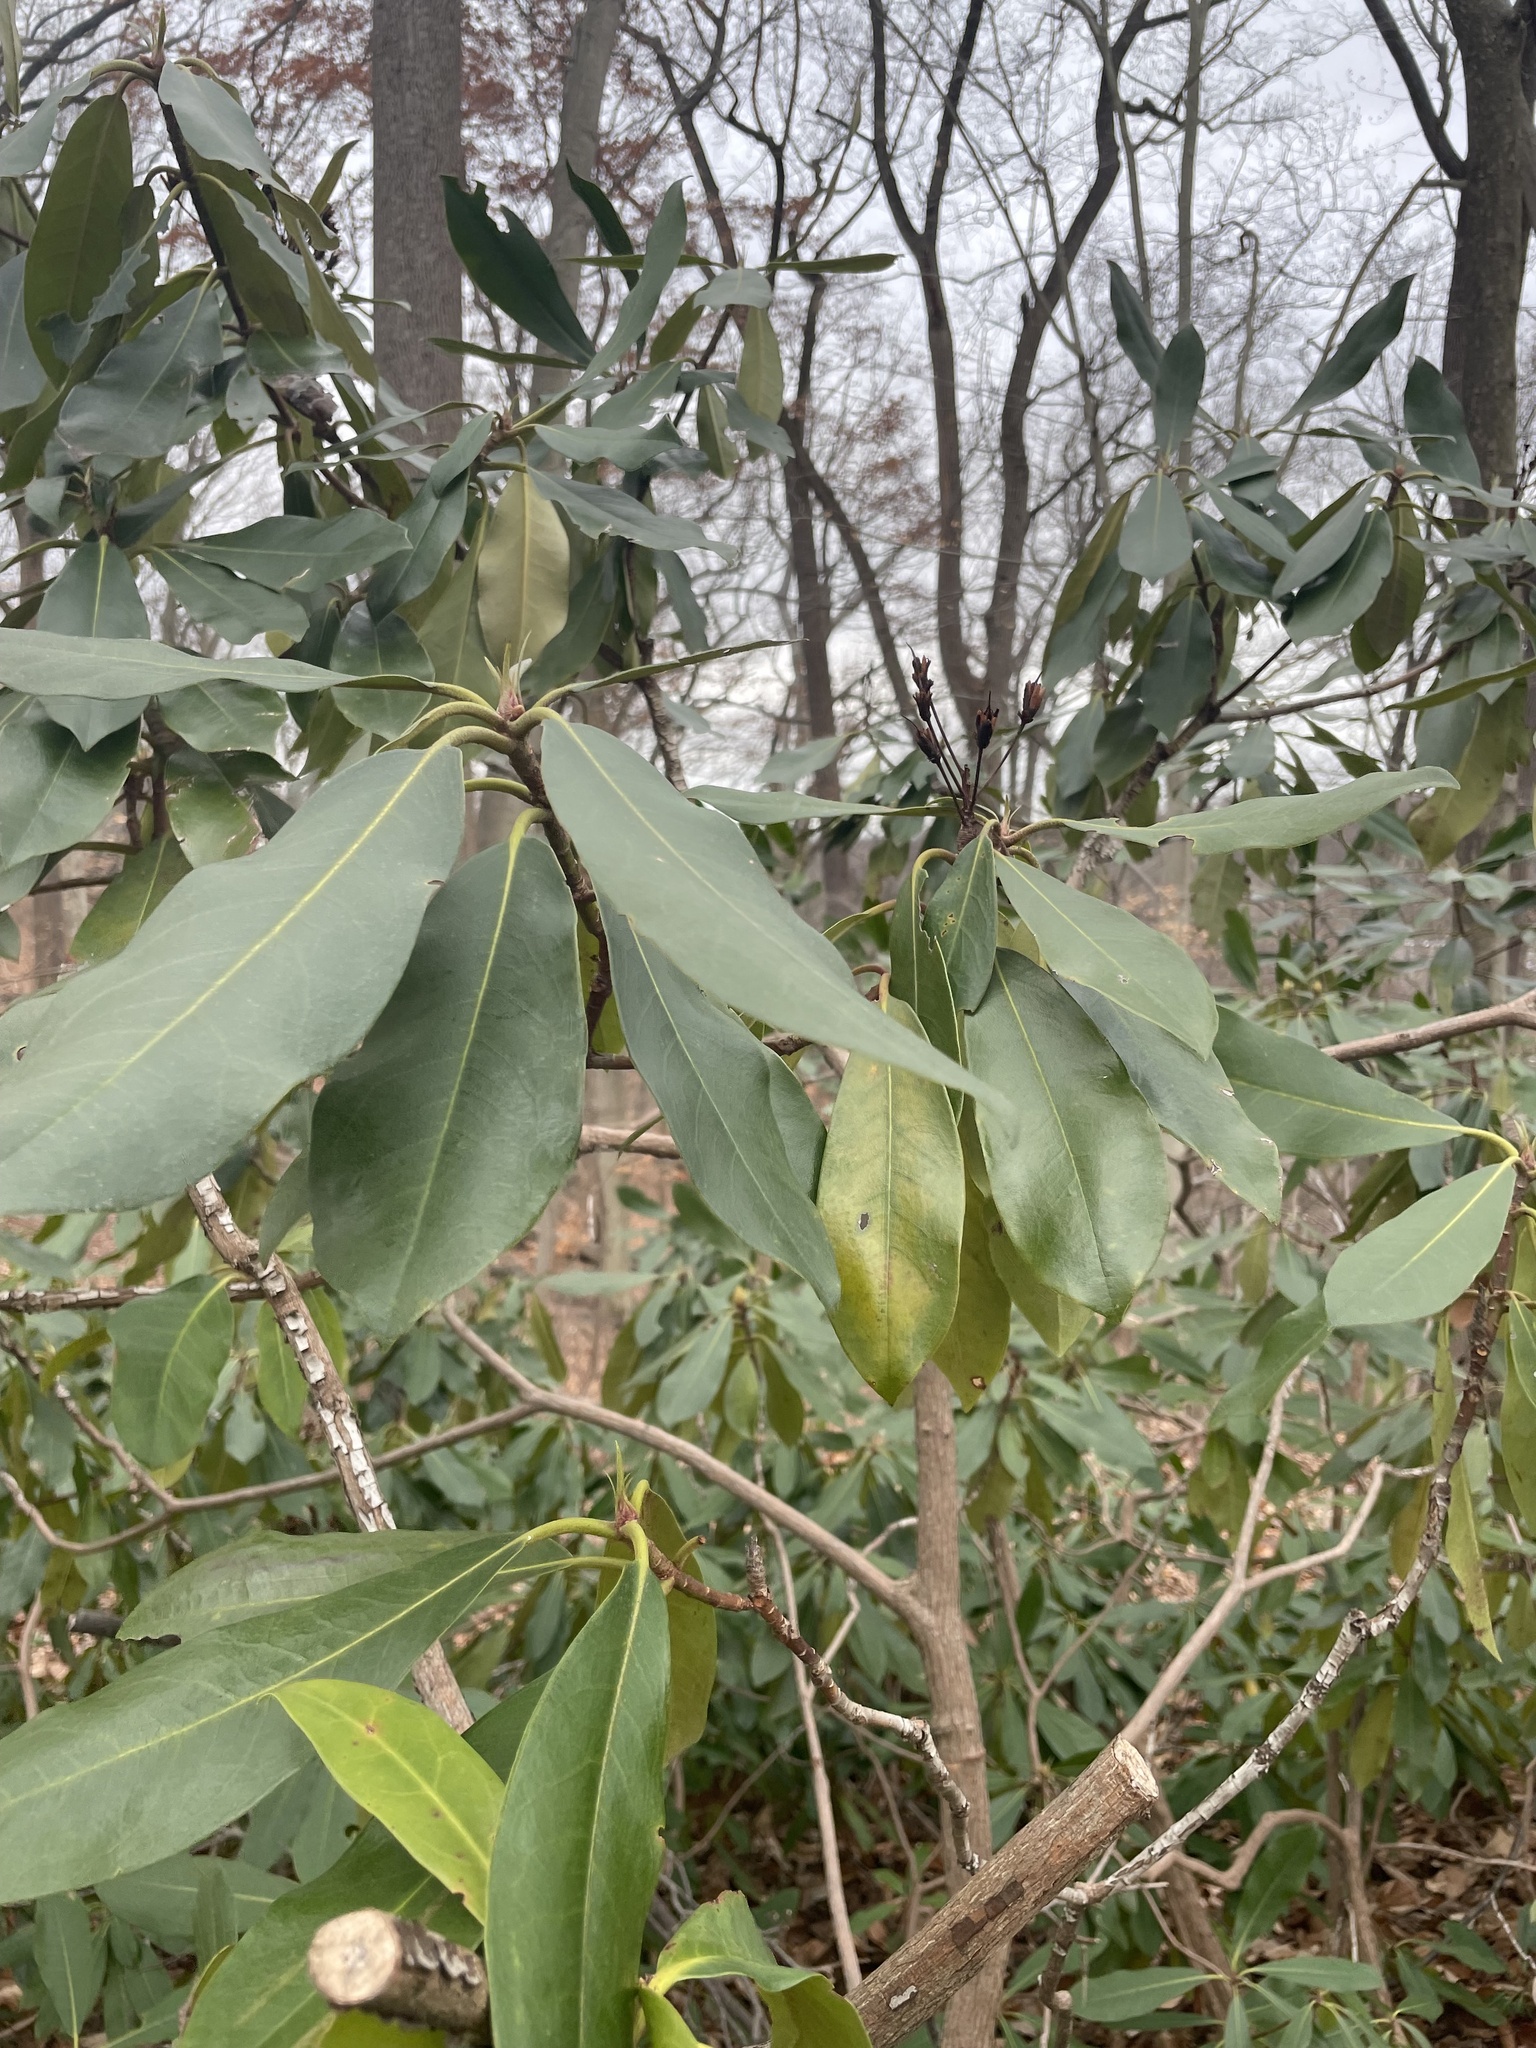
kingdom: Plantae
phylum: Tracheophyta
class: Magnoliopsida
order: Ericales
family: Ericaceae
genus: Rhododendron
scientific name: Rhododendron maximum
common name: Great rhododendron
